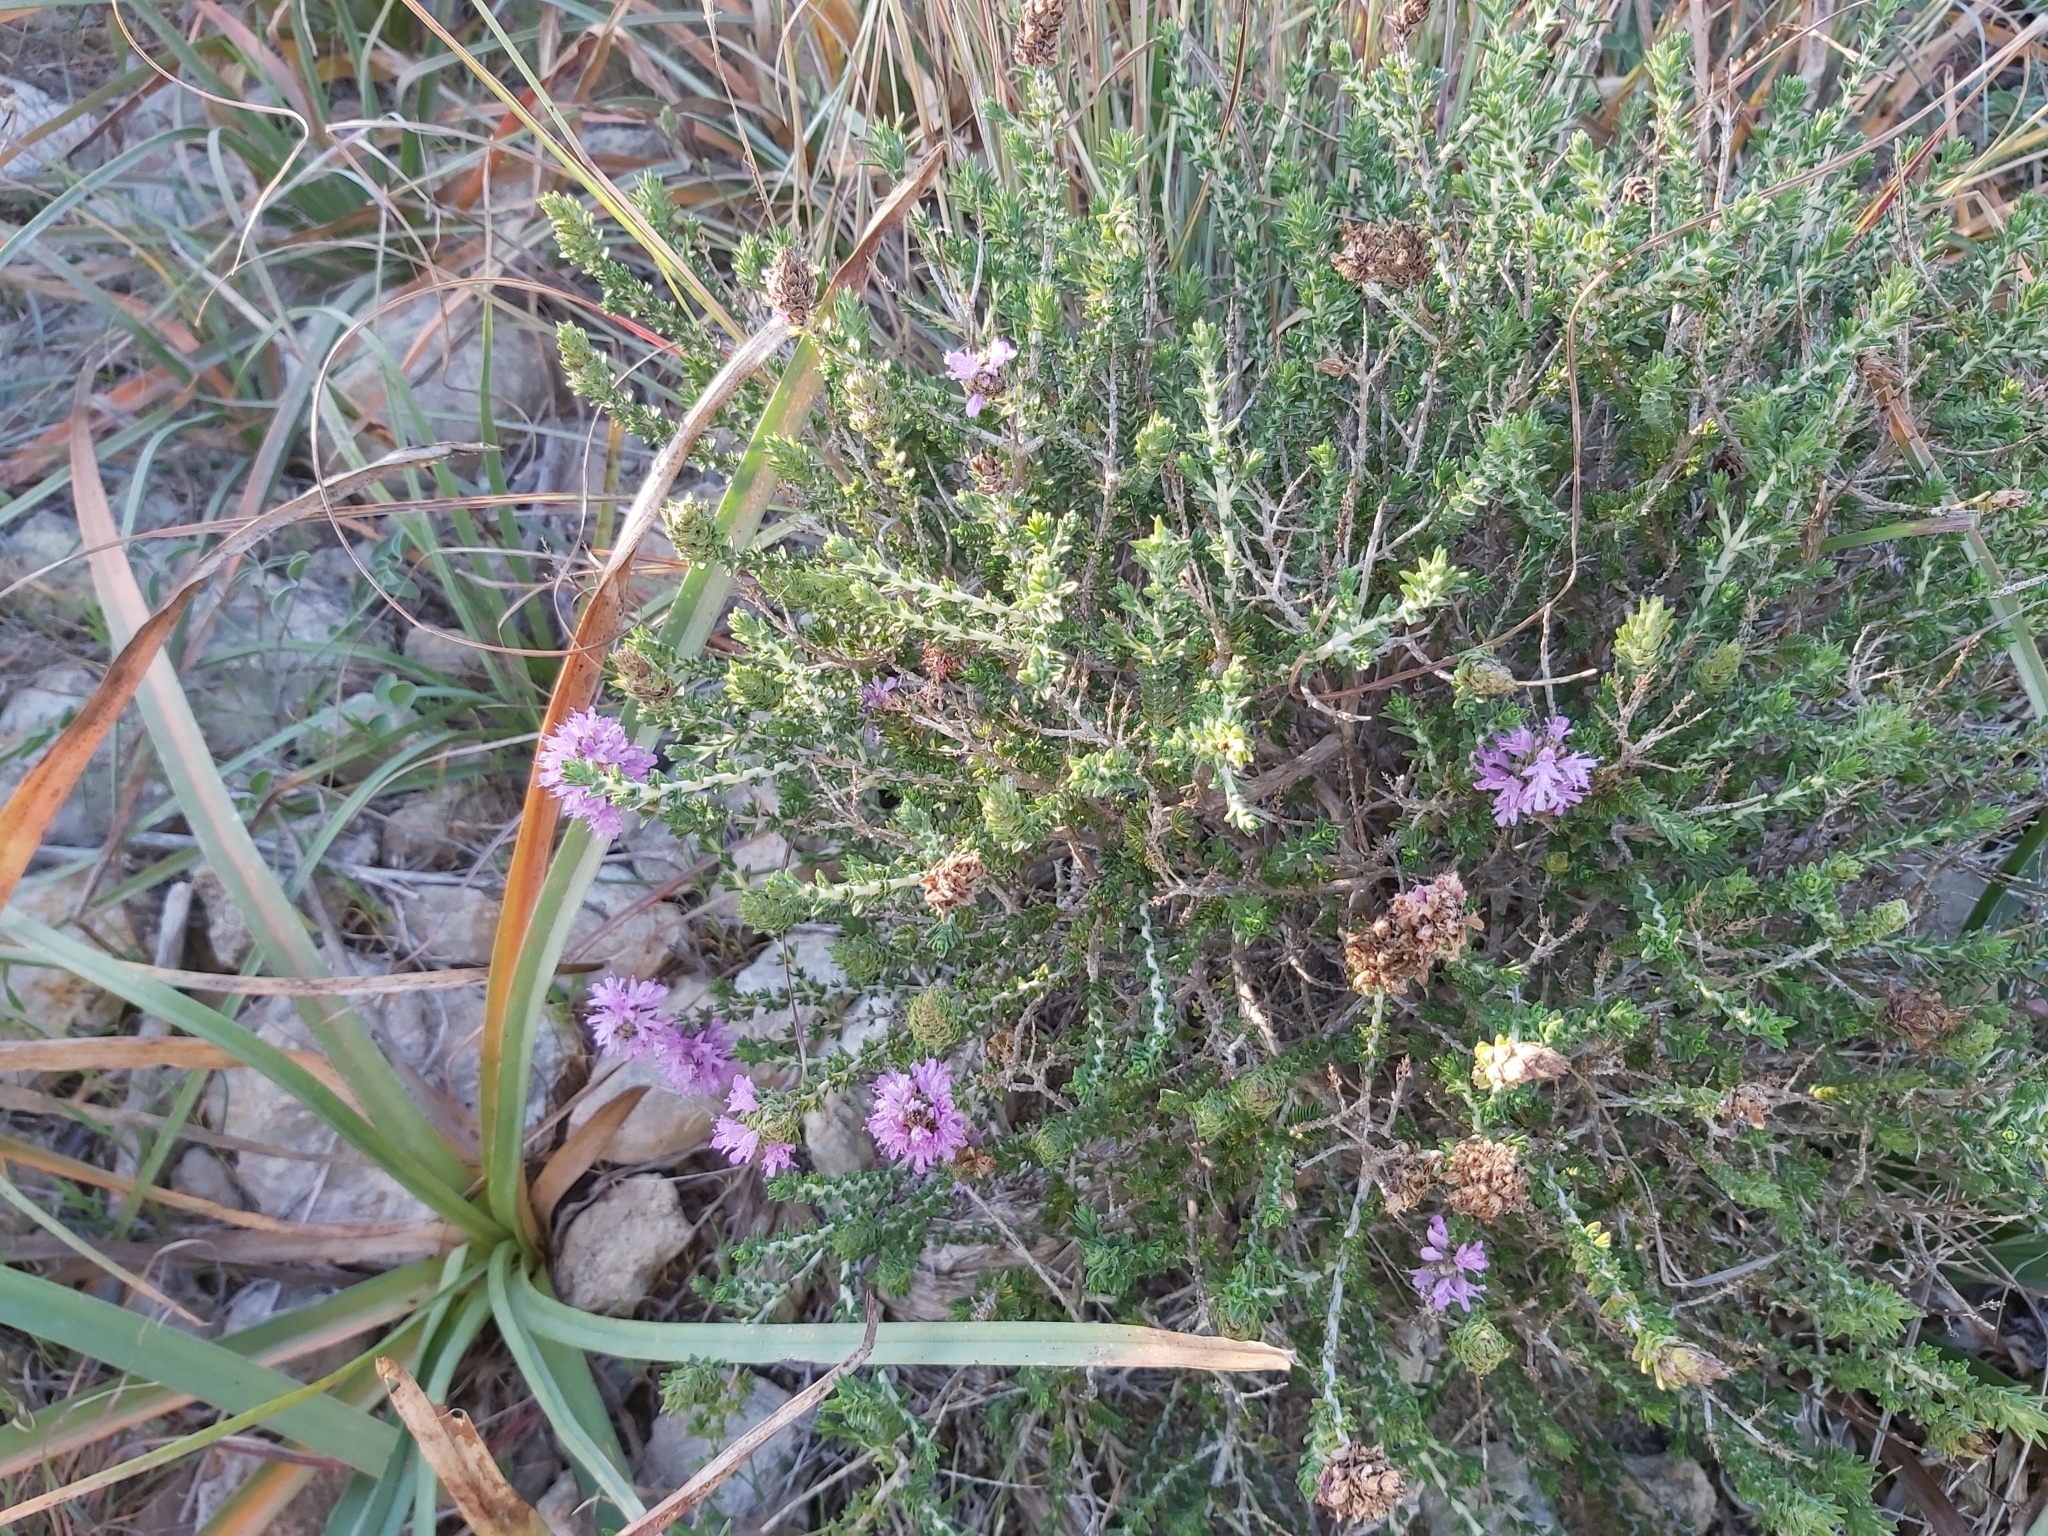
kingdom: Plantae
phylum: Tracheophyta
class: Magnoliopsida
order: Lamiales
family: Lamiaceae
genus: Thymbra
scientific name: Thymbra capitata
